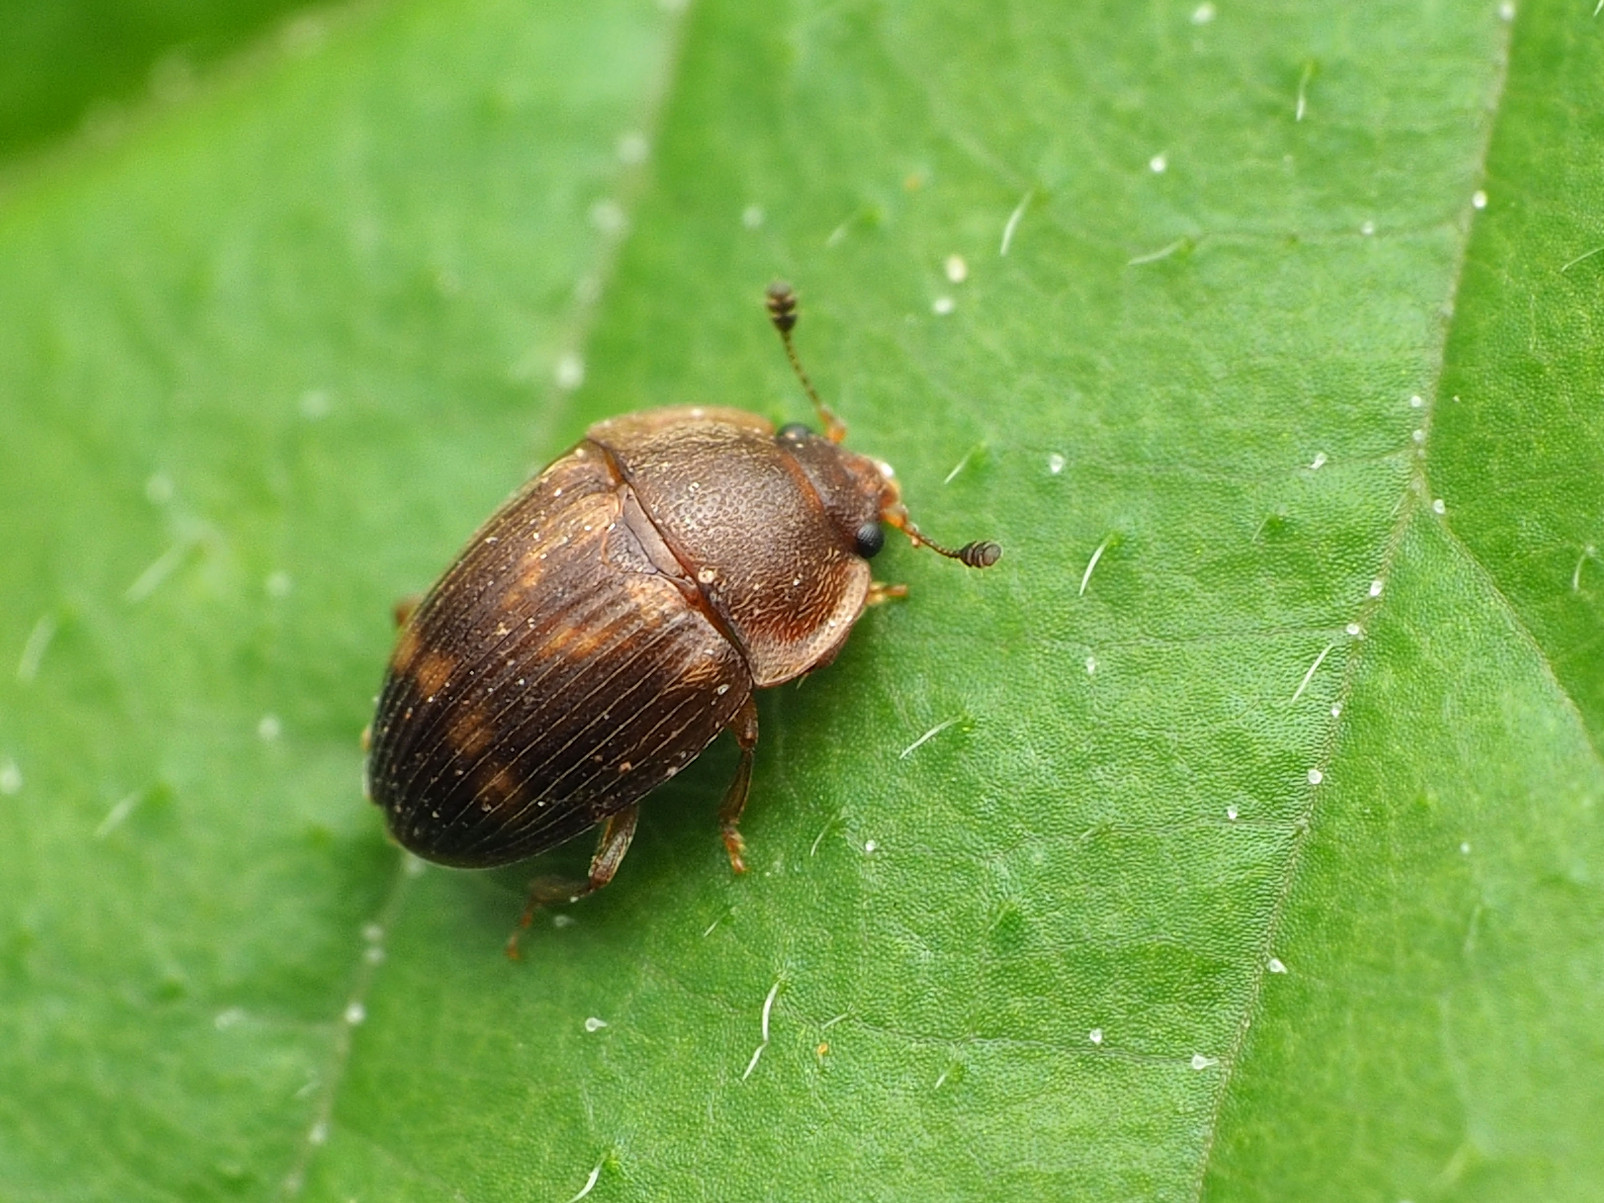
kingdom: Animalia
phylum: Arthropoda
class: Insecta
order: Coleoptera
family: Nitidulidae
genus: Stelidota
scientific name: Stelidota geminata
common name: Strawberry sap beetle
